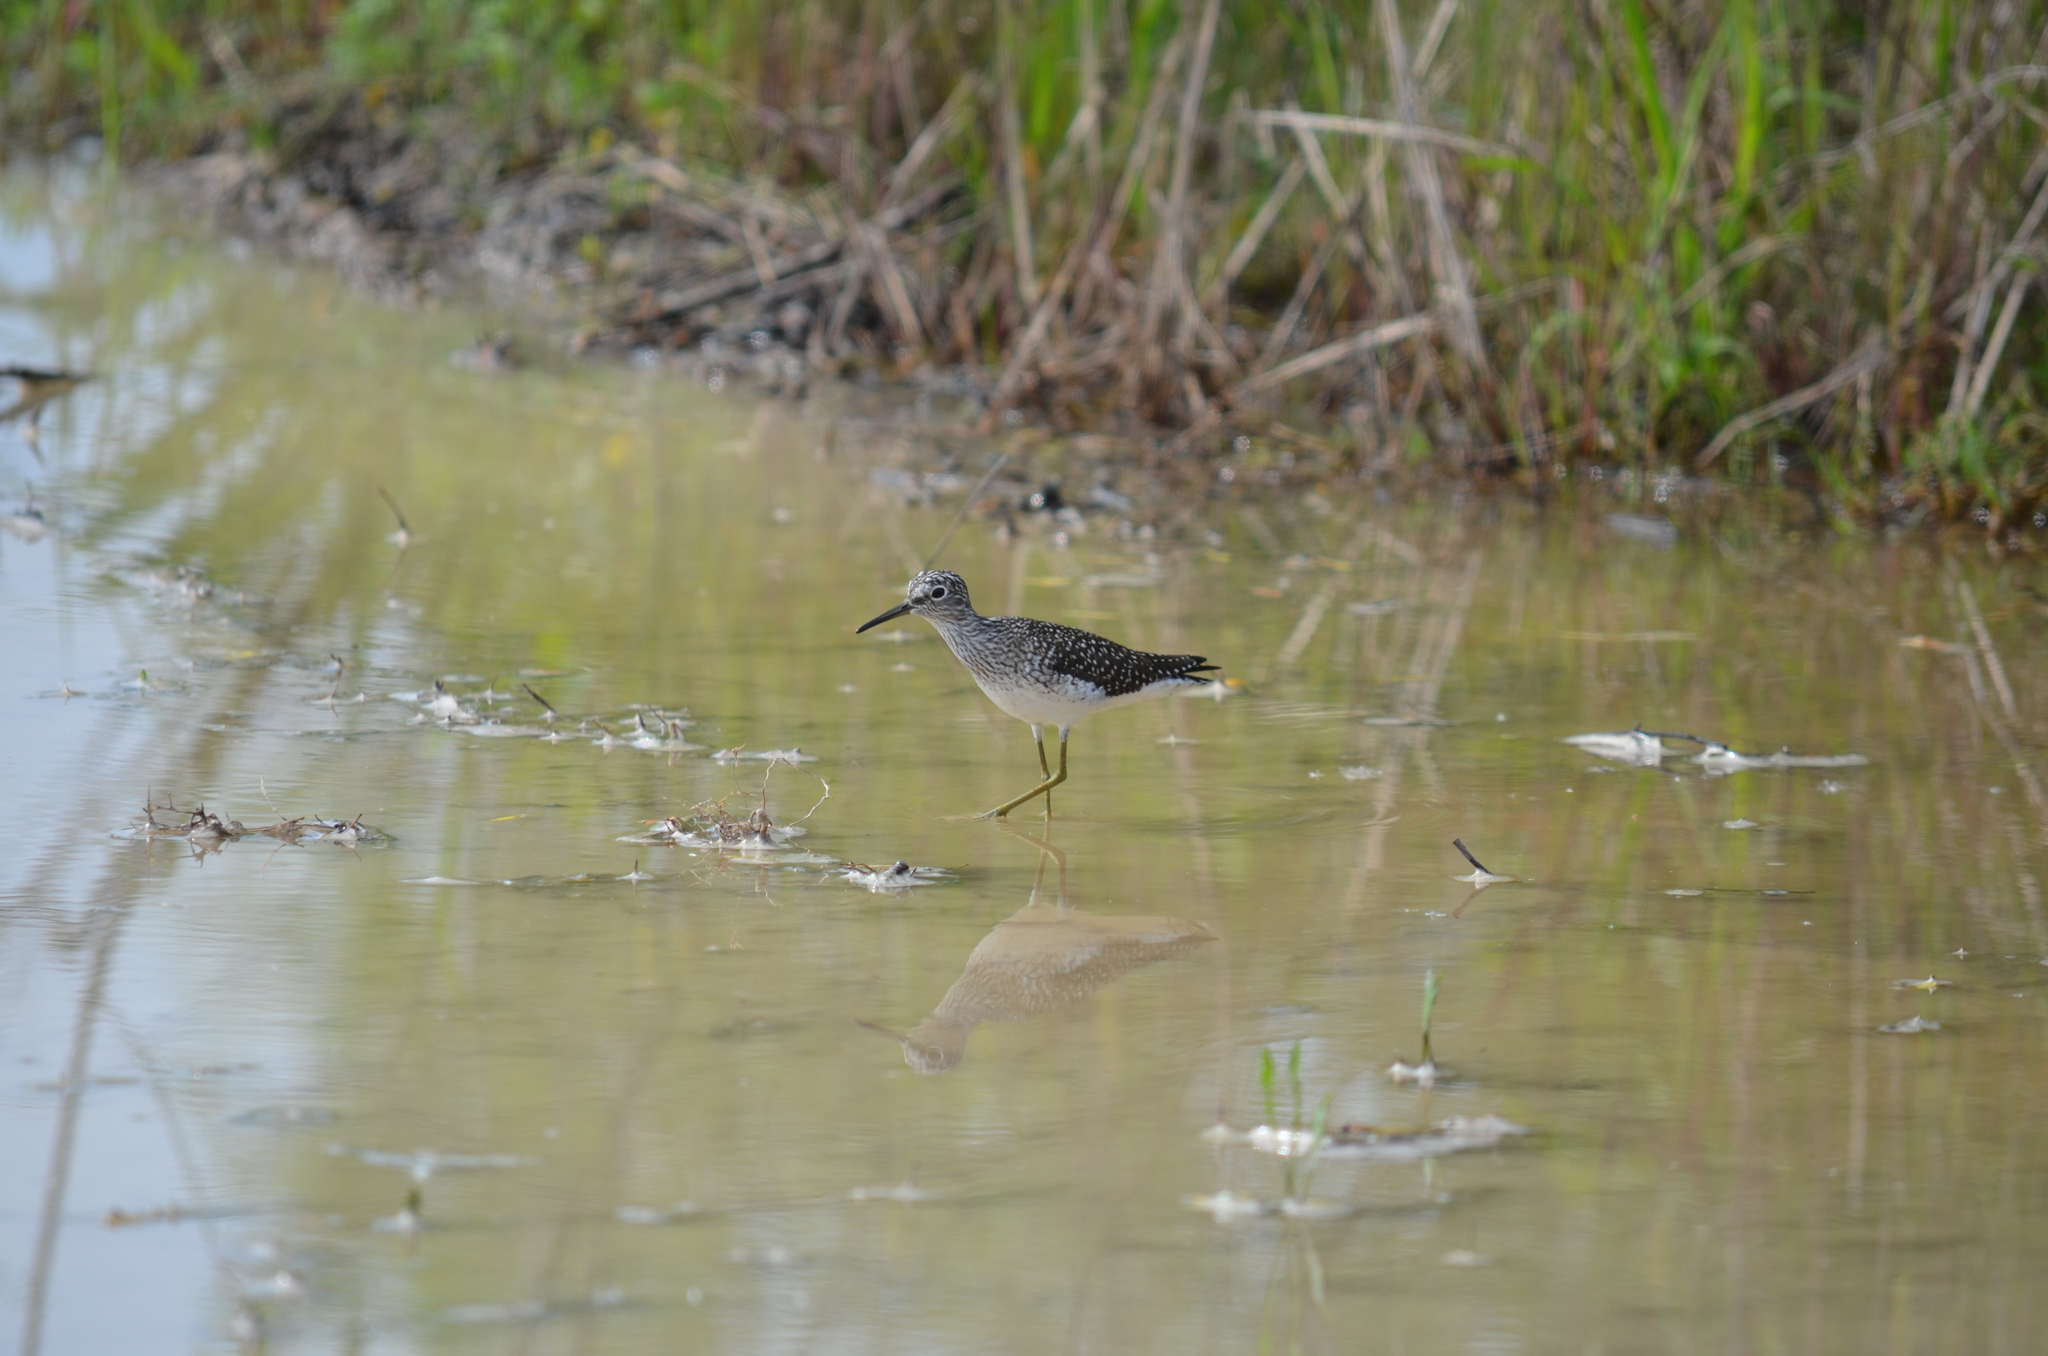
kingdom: Animalia
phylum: Chordata
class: Aves
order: Charadriiformes
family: Scolopacidae
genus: Tringa
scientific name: Tringa solitaria
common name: Solitary sandpiper
